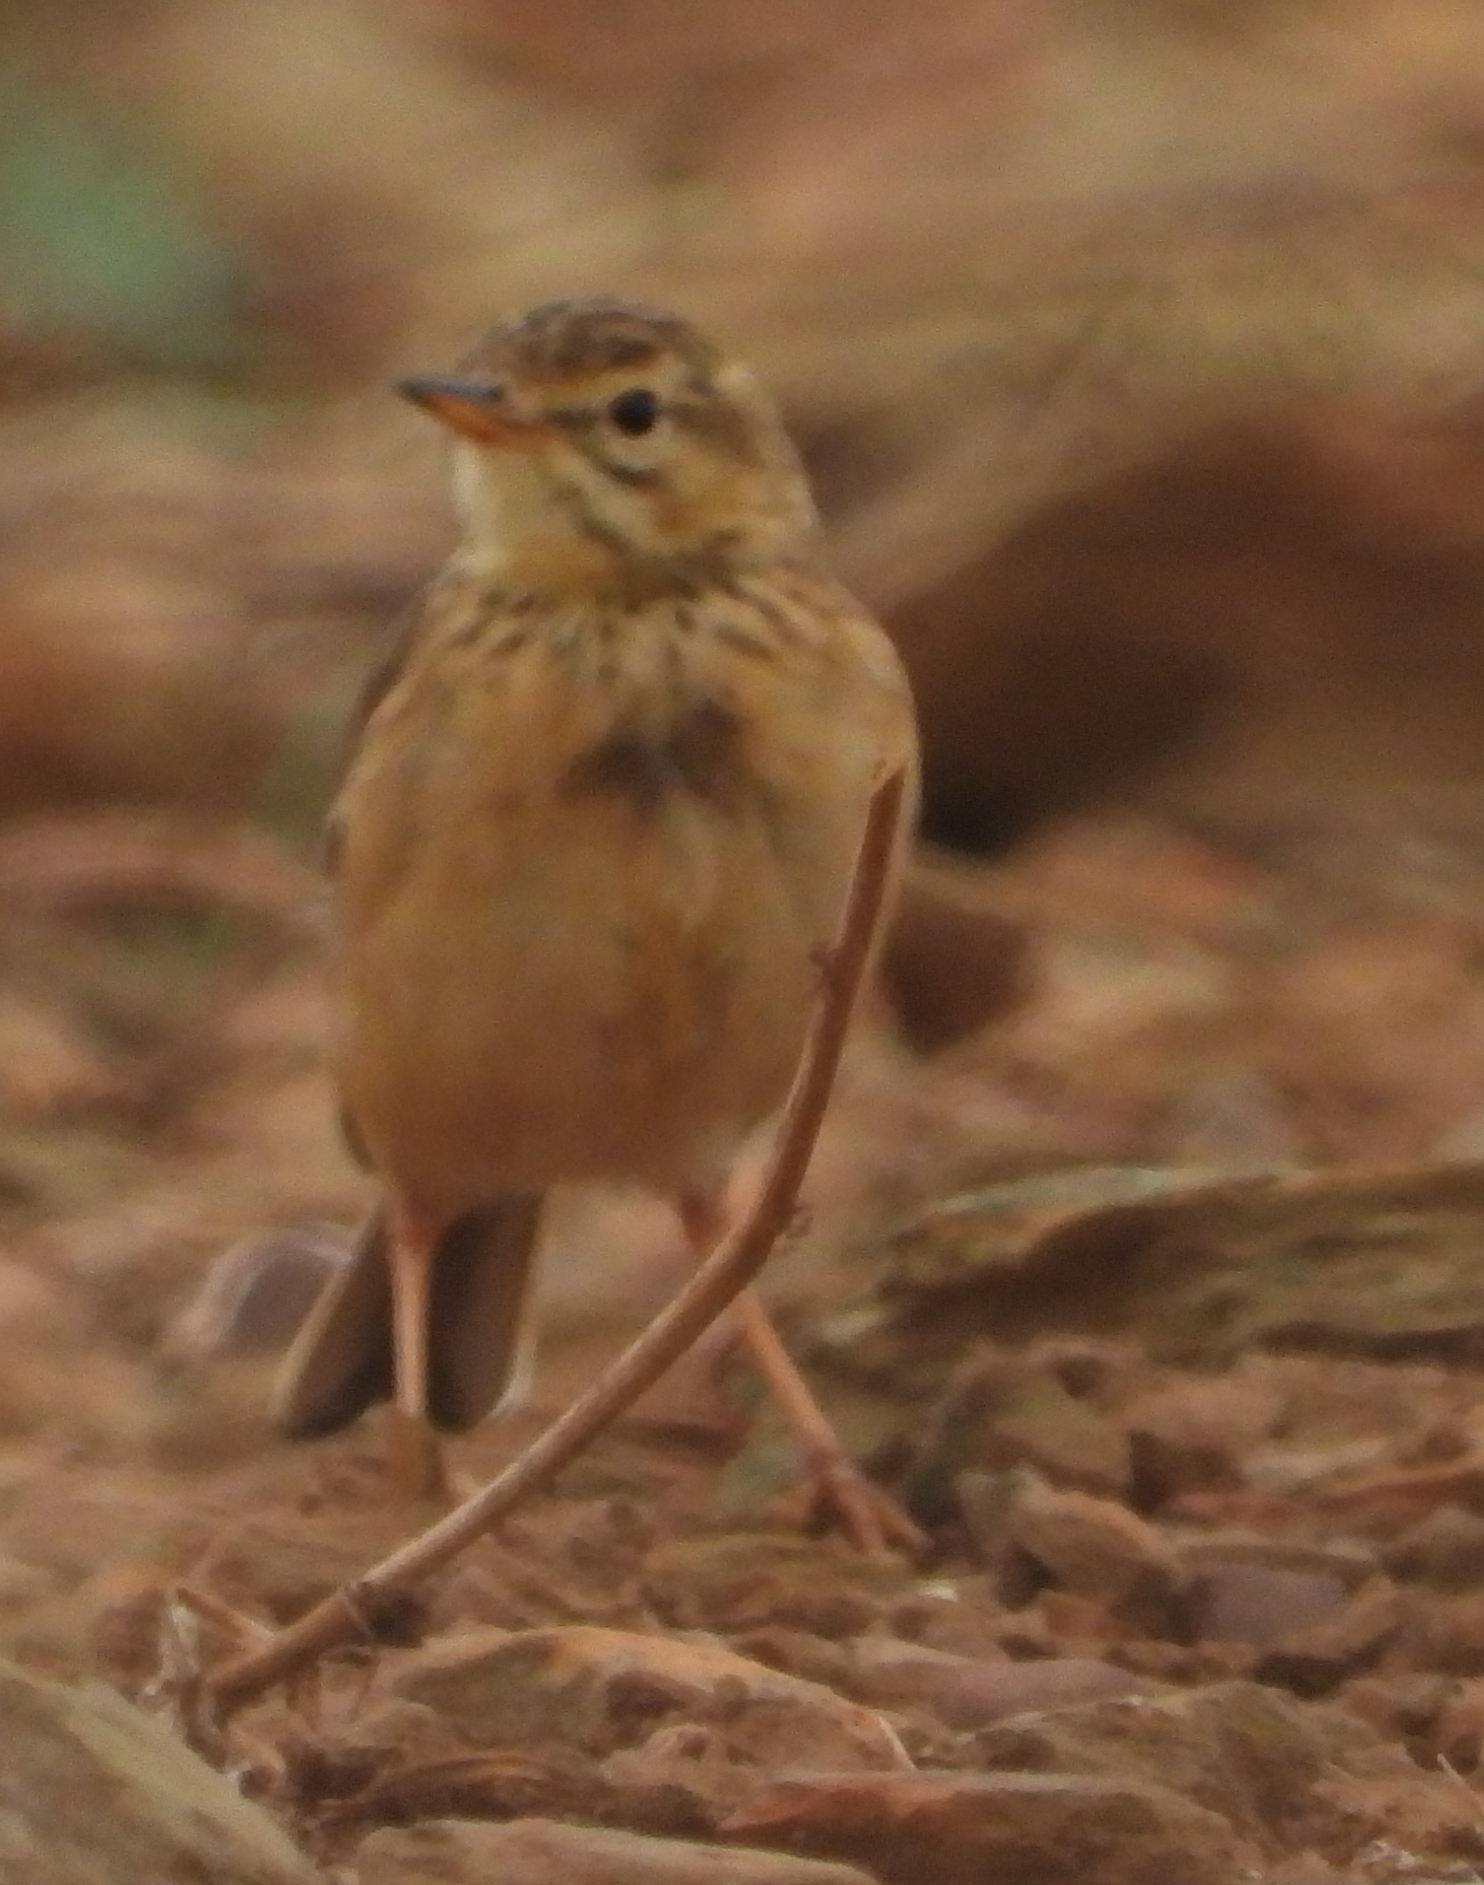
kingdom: Animalia
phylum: Chordata
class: Aves
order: Passeriformes
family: Motacillidae
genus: Anthus
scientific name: Anthus cinnamomeus
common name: African pipit
